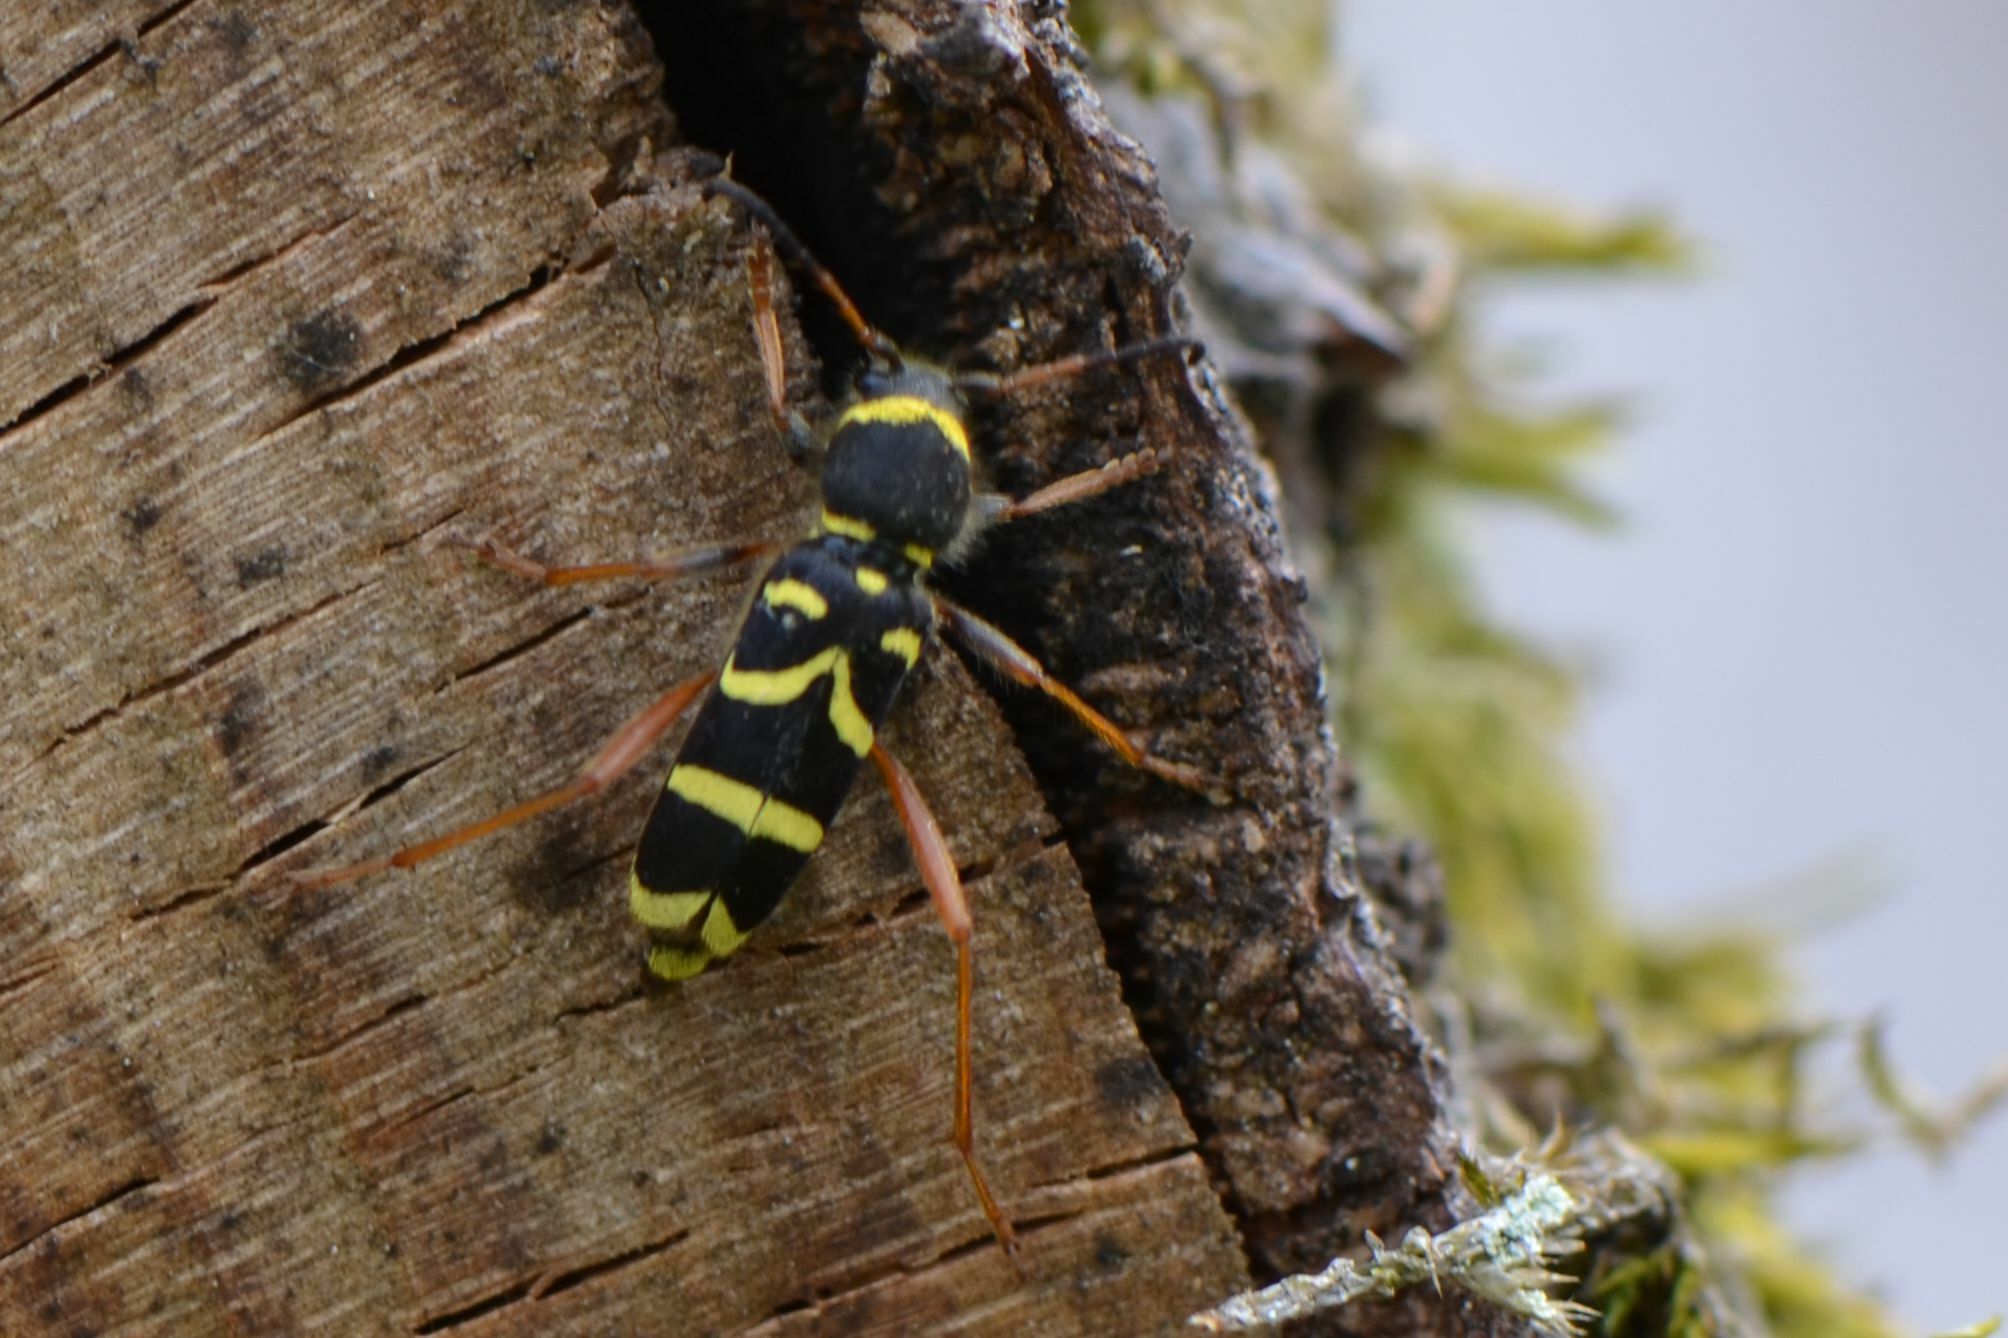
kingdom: Animalia
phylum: Arthropoda
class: Insecta
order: Coleoptera
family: Cerambycidae
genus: Clytus
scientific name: Clytus arietis
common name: Wasp beetle
